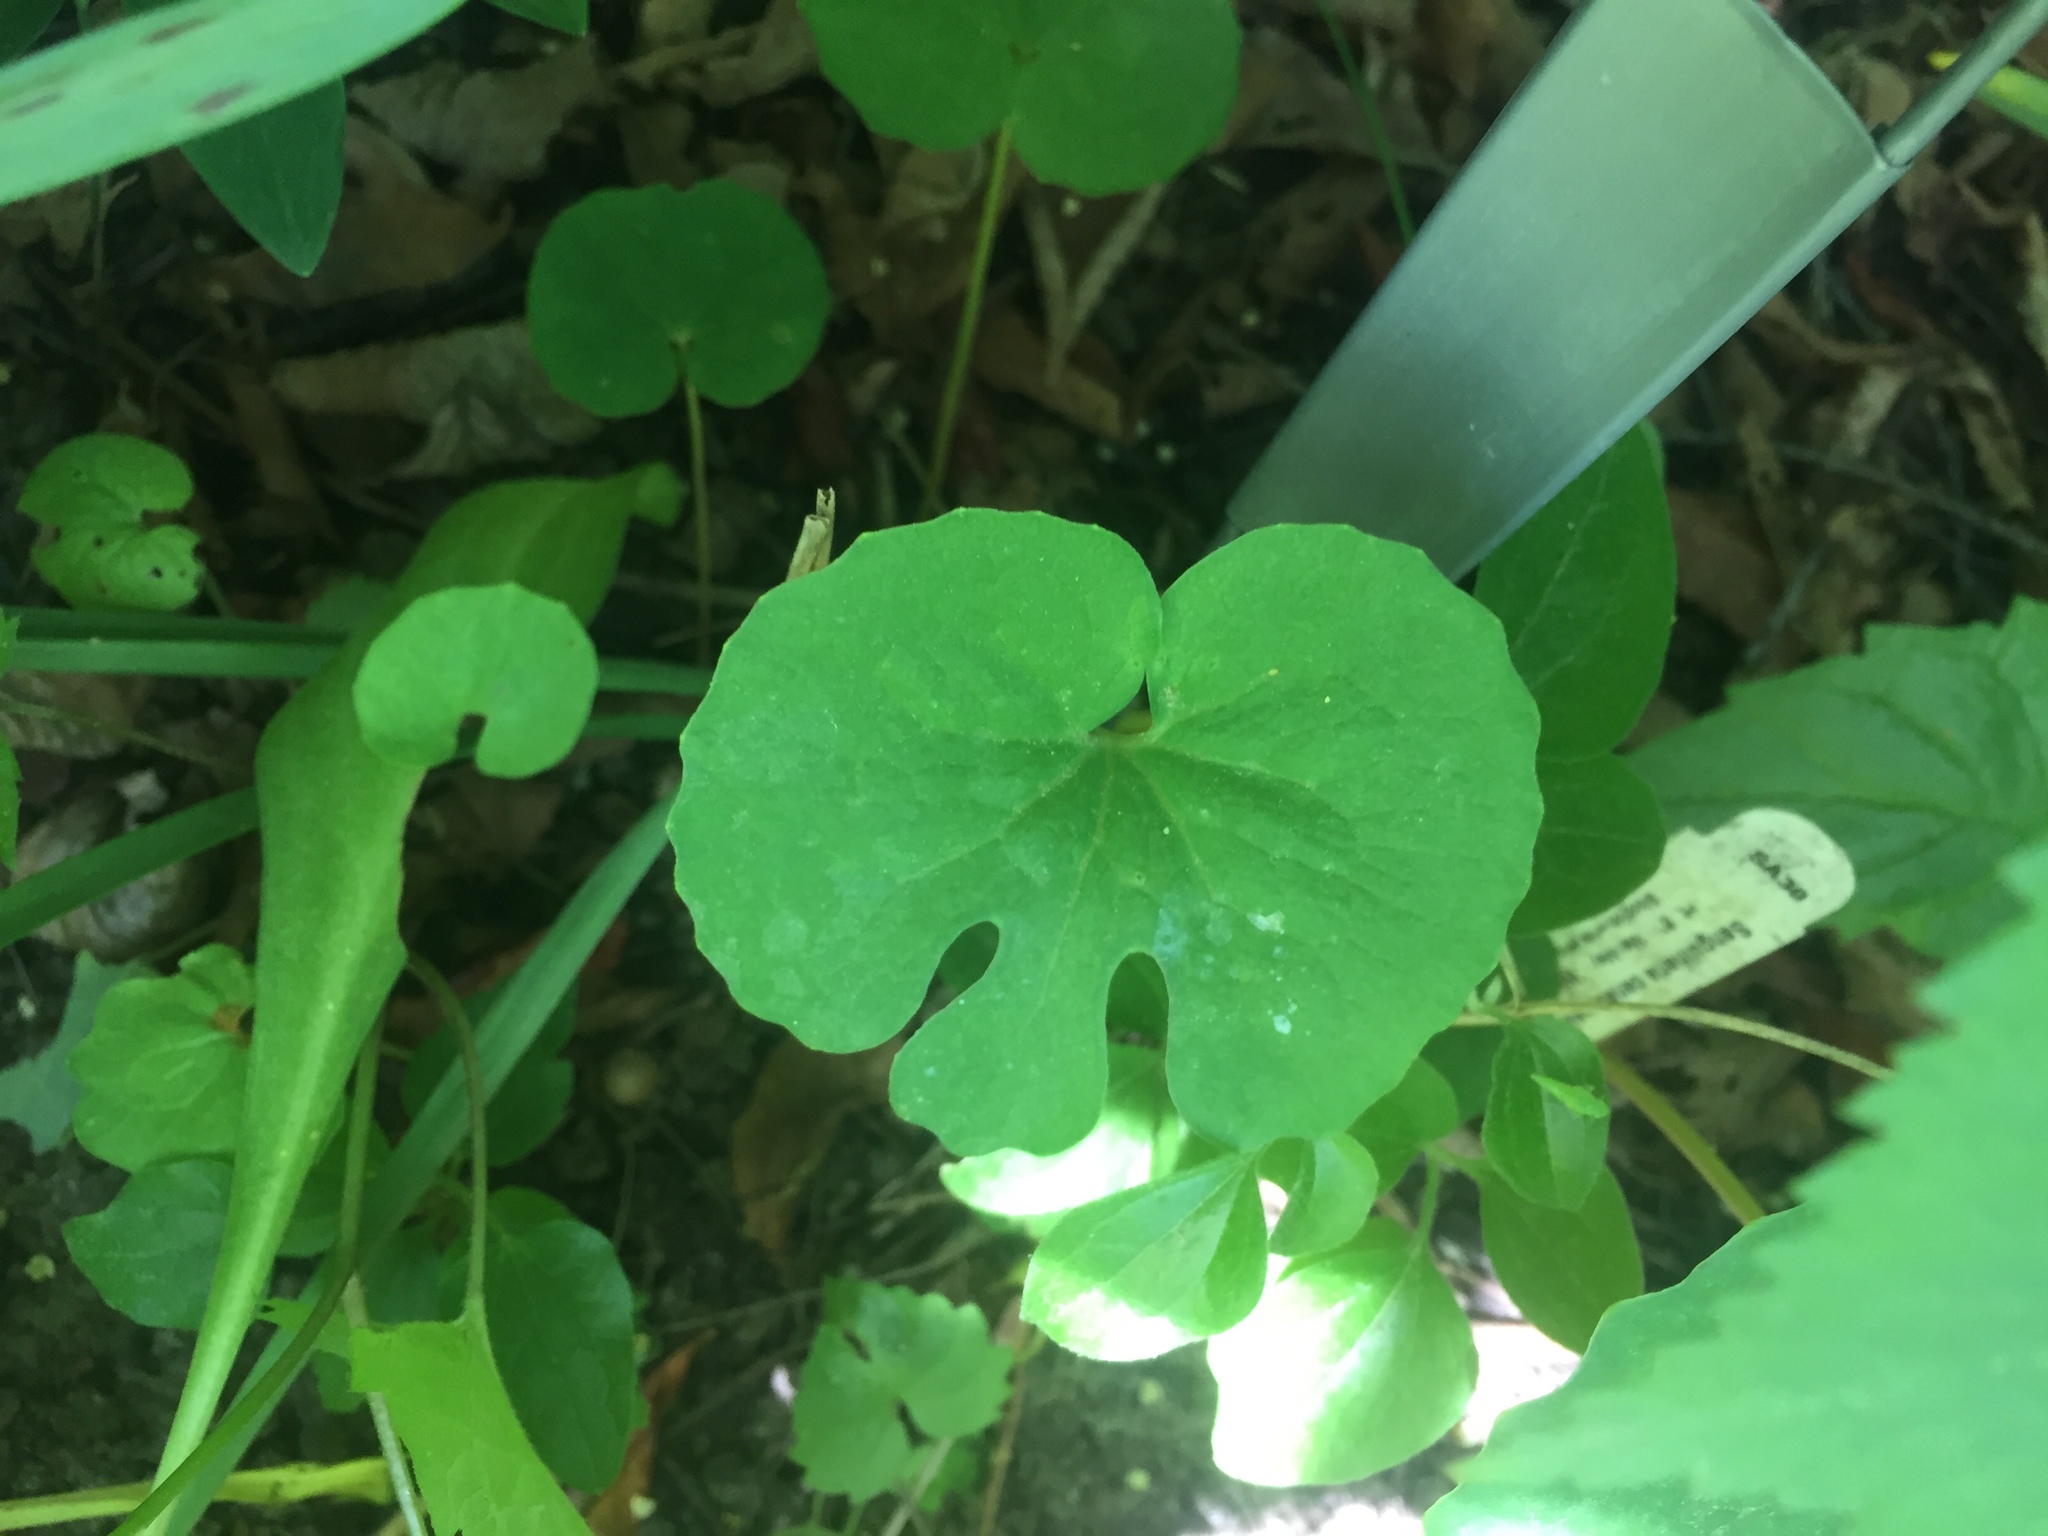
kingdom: Plantae
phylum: Tracheophyta
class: Magnoliopsida
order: Ranunculales
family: Papaveraceae
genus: Sanguinaria
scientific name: Sanguinaria canadensis
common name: Bloodroot
